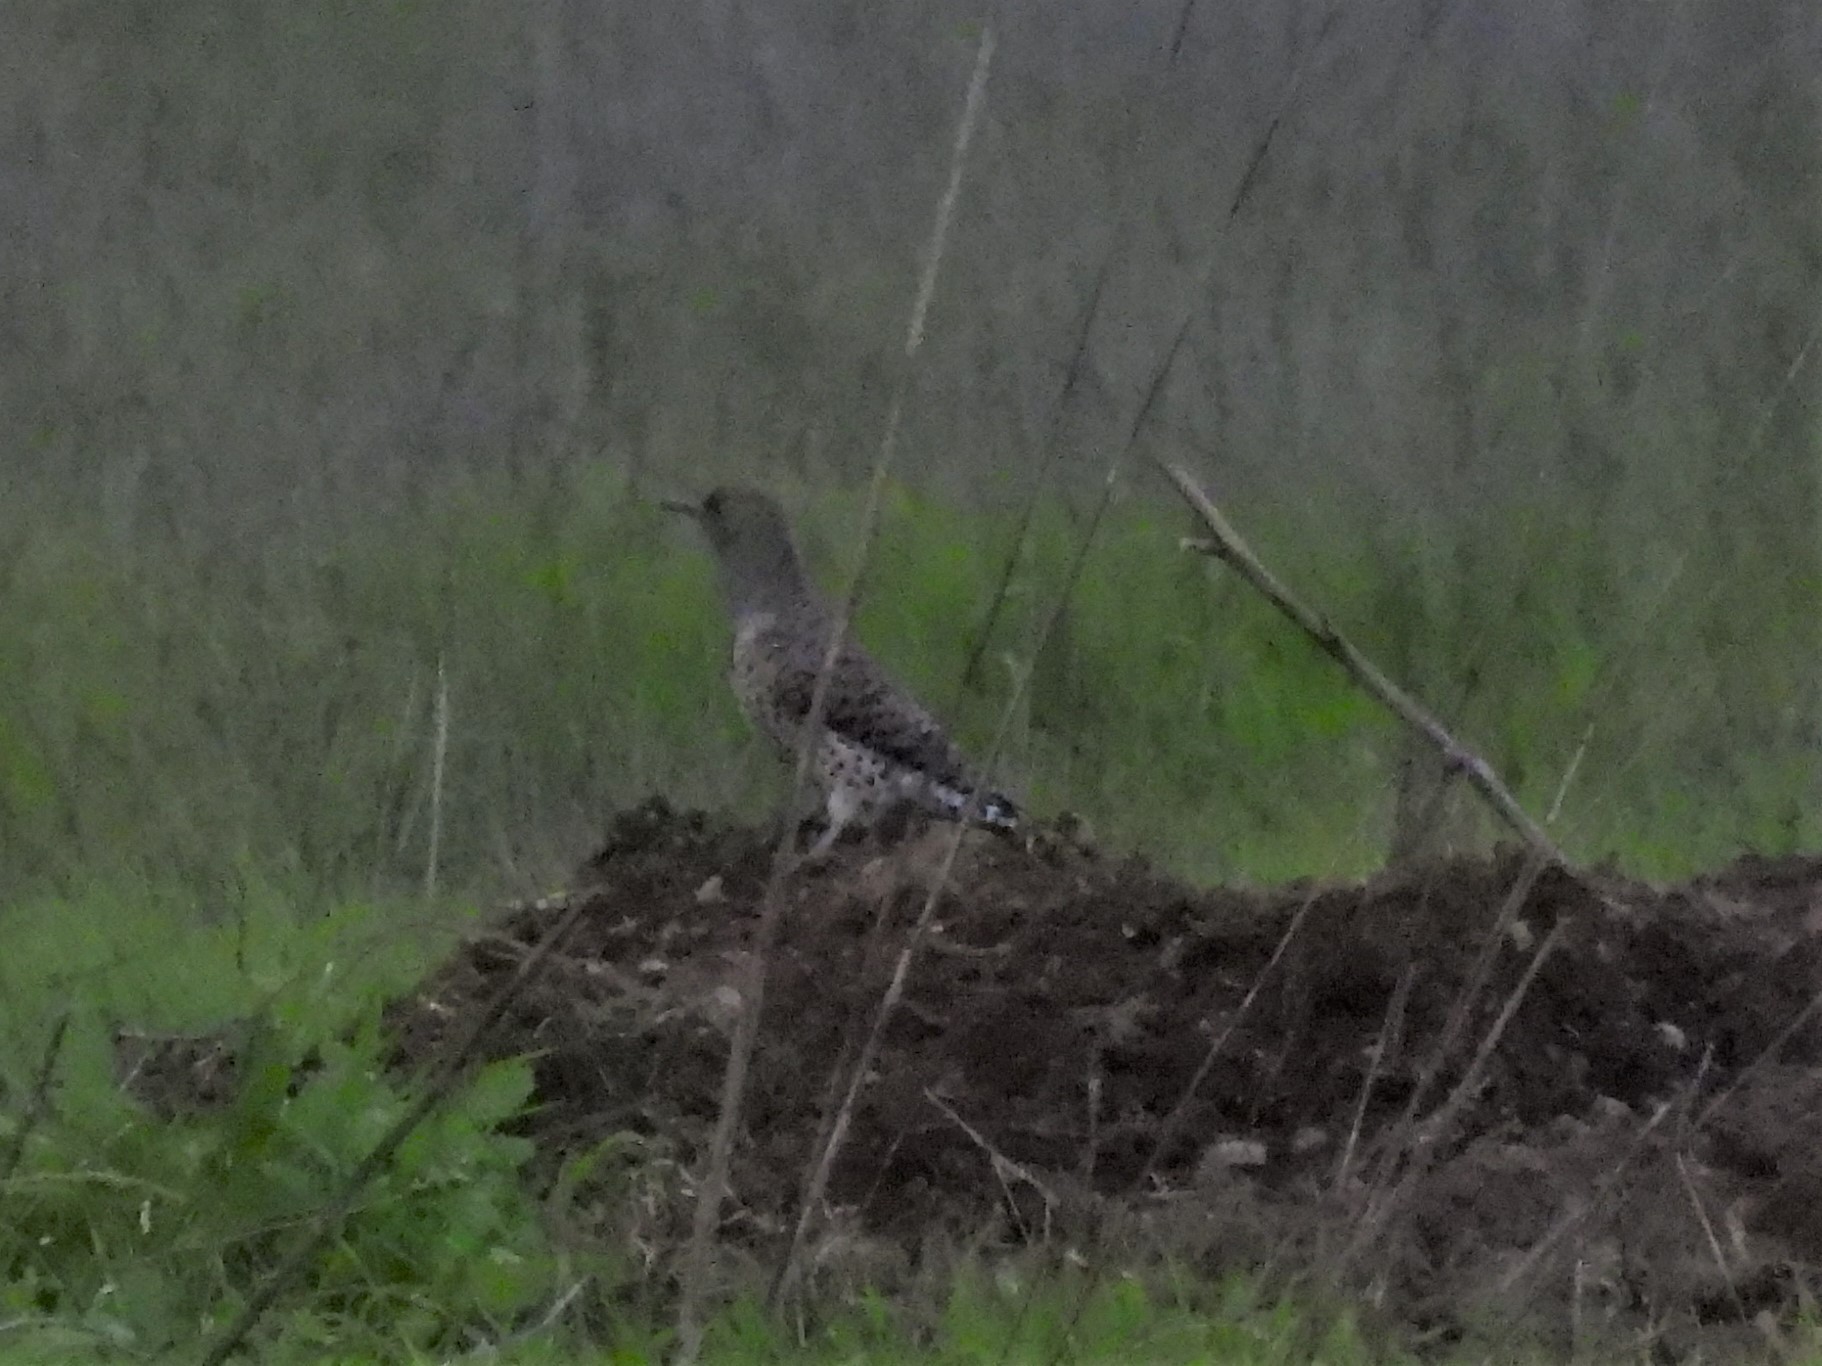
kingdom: Animalia
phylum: Chordata
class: Aves
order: Piciformes
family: Picidae
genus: Colaptes
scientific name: Colaptes auratus
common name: Northern flicker
